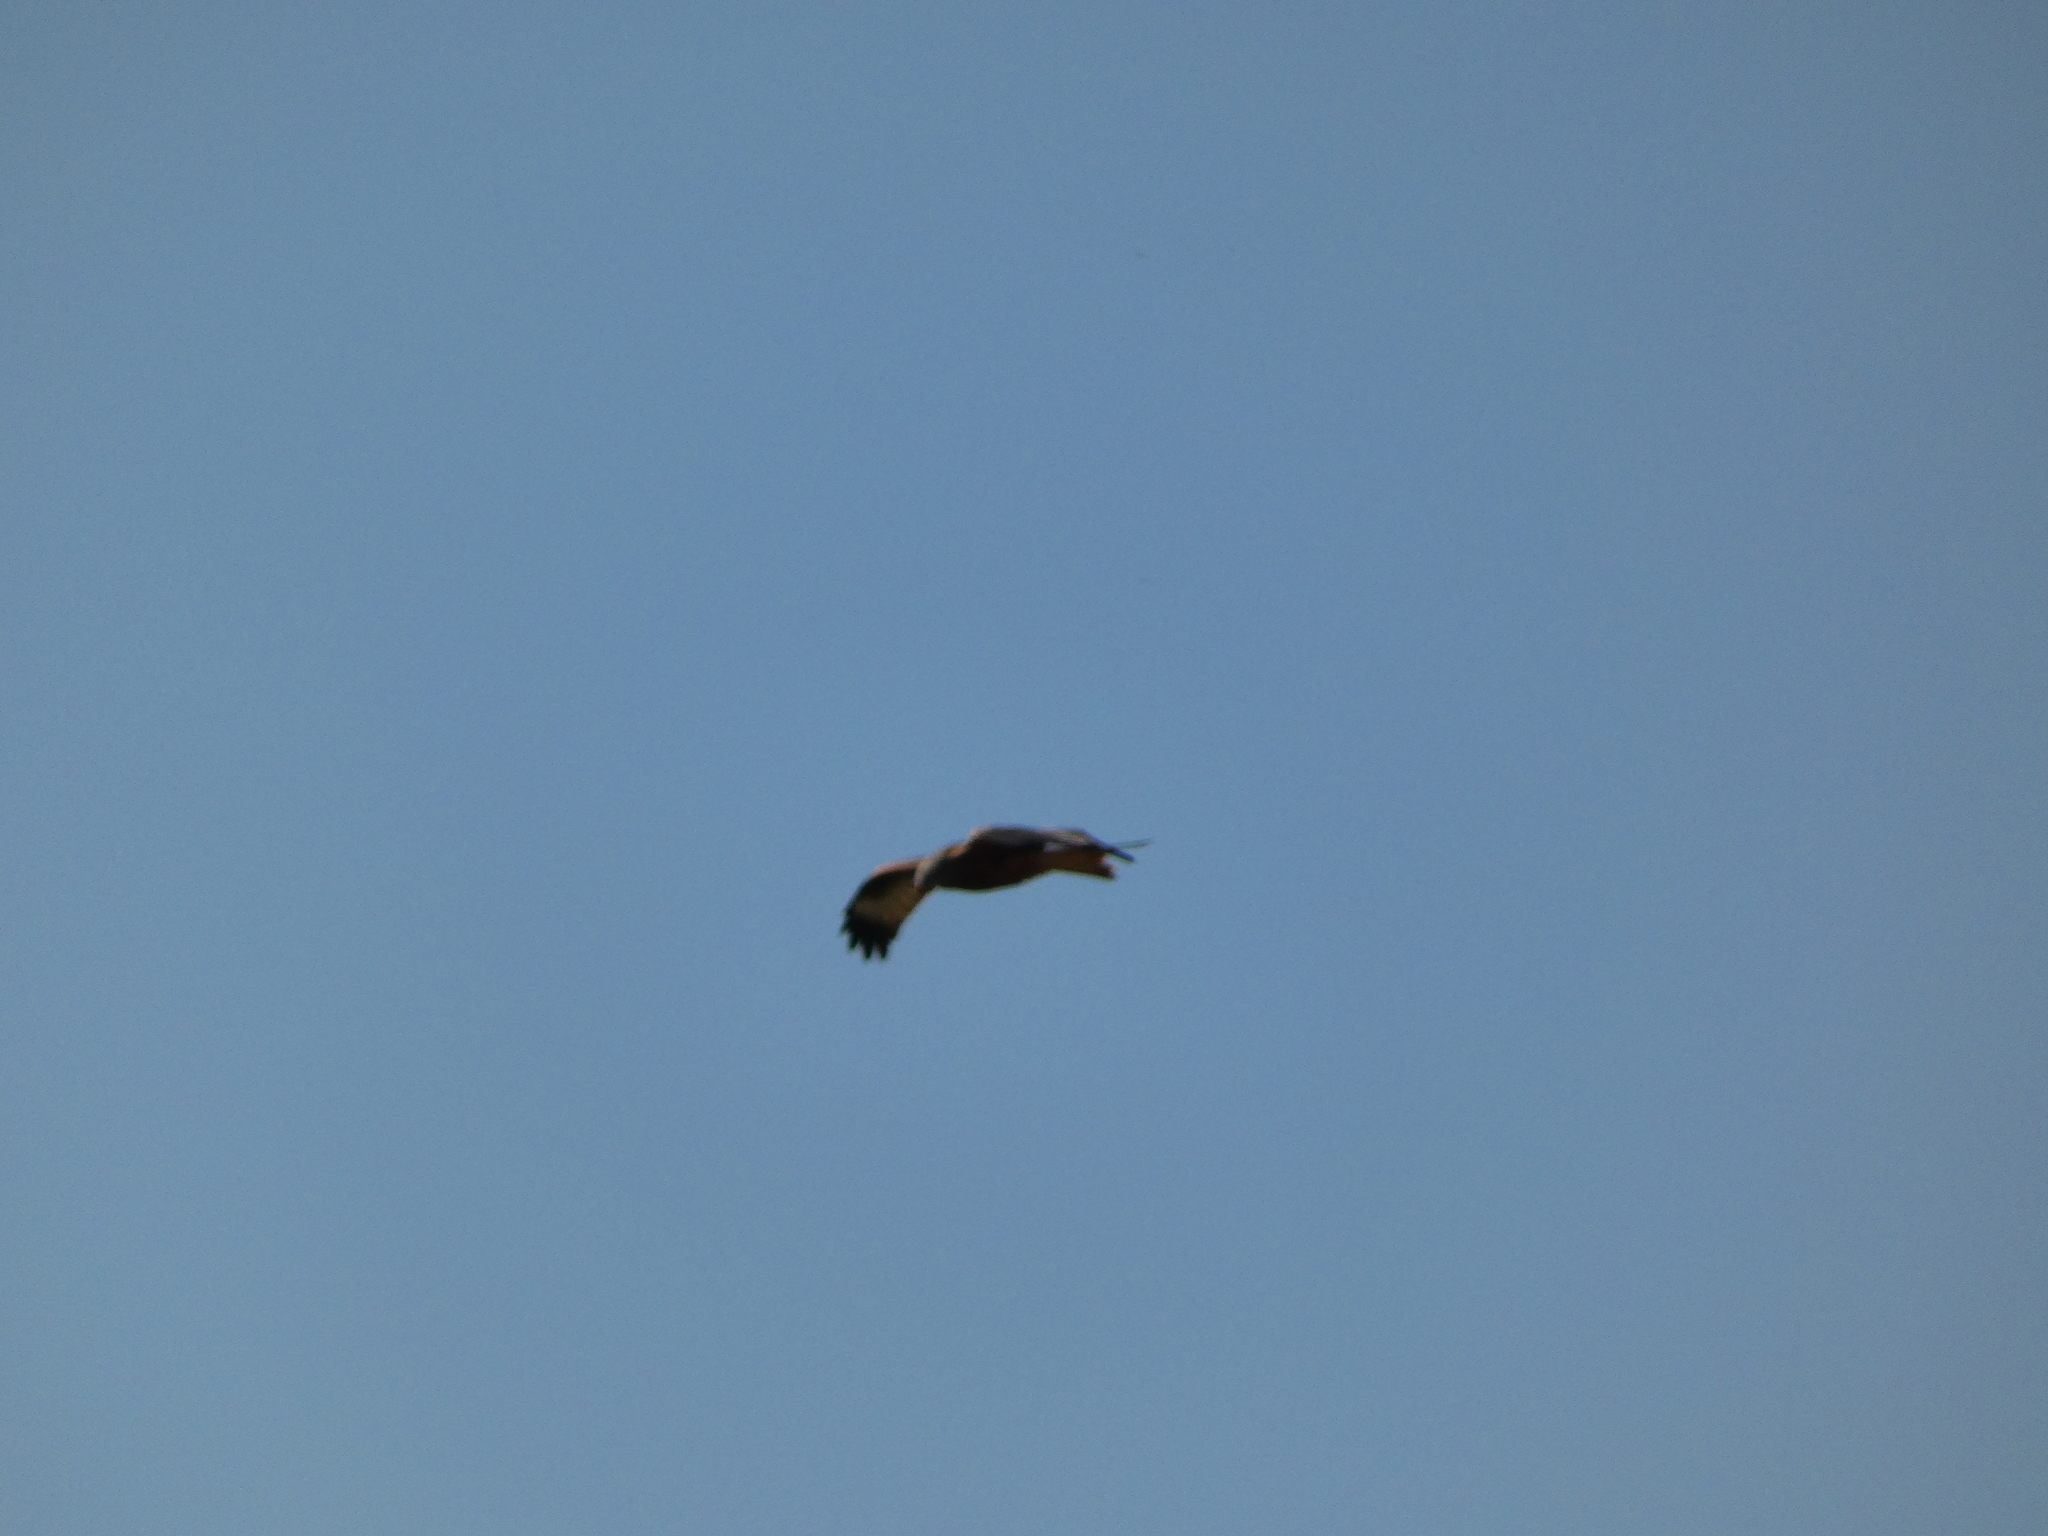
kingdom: Animalia
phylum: Chordata
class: Aves
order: Accipitriformes
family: Accipitridae
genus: Milvus
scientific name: Milvus milvus
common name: Red kite
